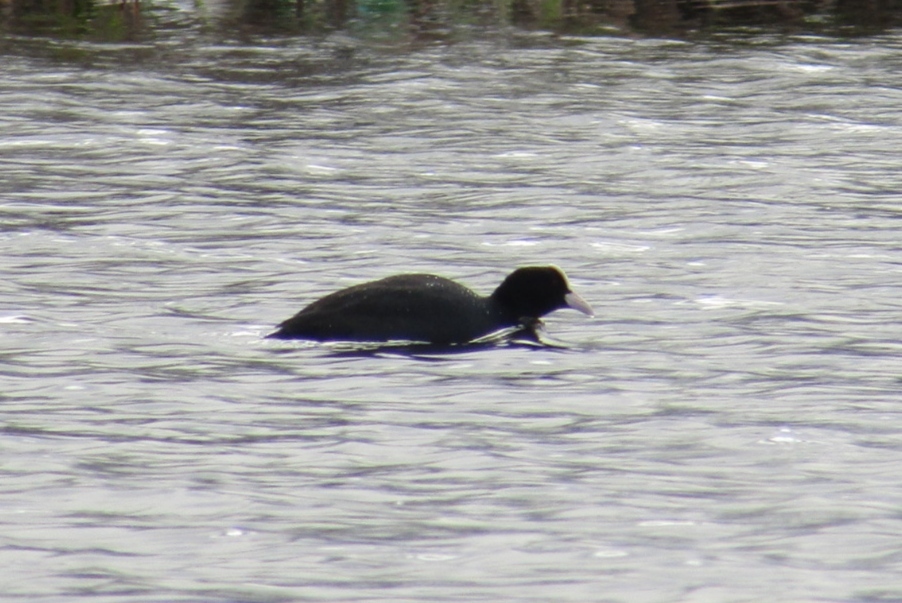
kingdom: Animalia
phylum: Chordata
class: Aves
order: Gruiformes
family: Rallidae
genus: Fulica
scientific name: Fulica atra
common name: Eurasian coot
